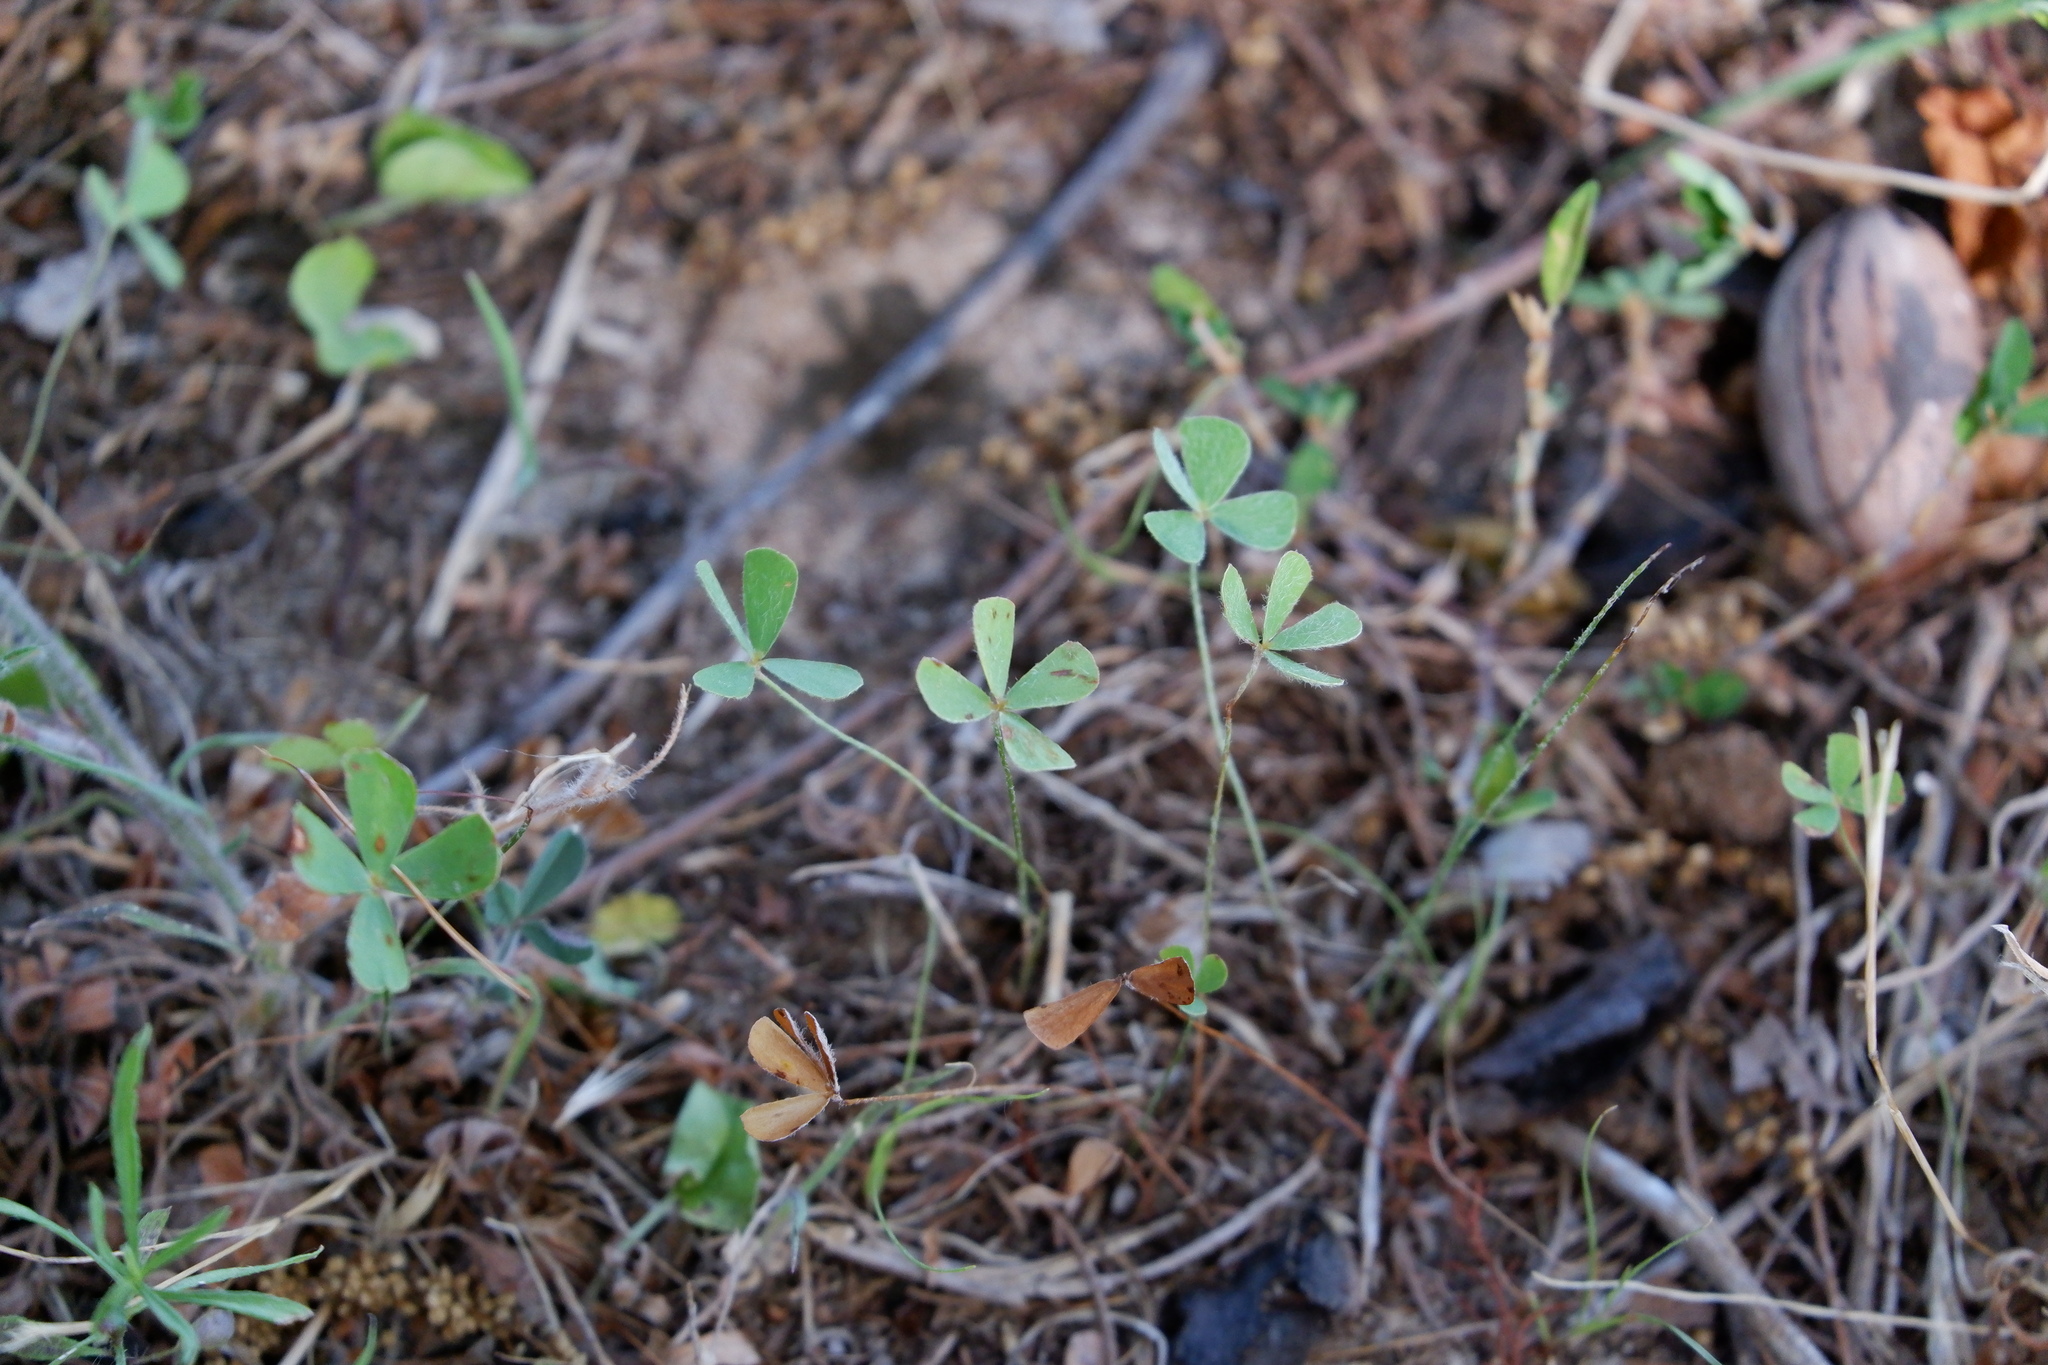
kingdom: Plantae
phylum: Tracheophyta
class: Polypodiopsida
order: Salviniales
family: Marsileaceae
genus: Marsilea
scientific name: Marsilea vestita
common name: Hooked-pepperwort
